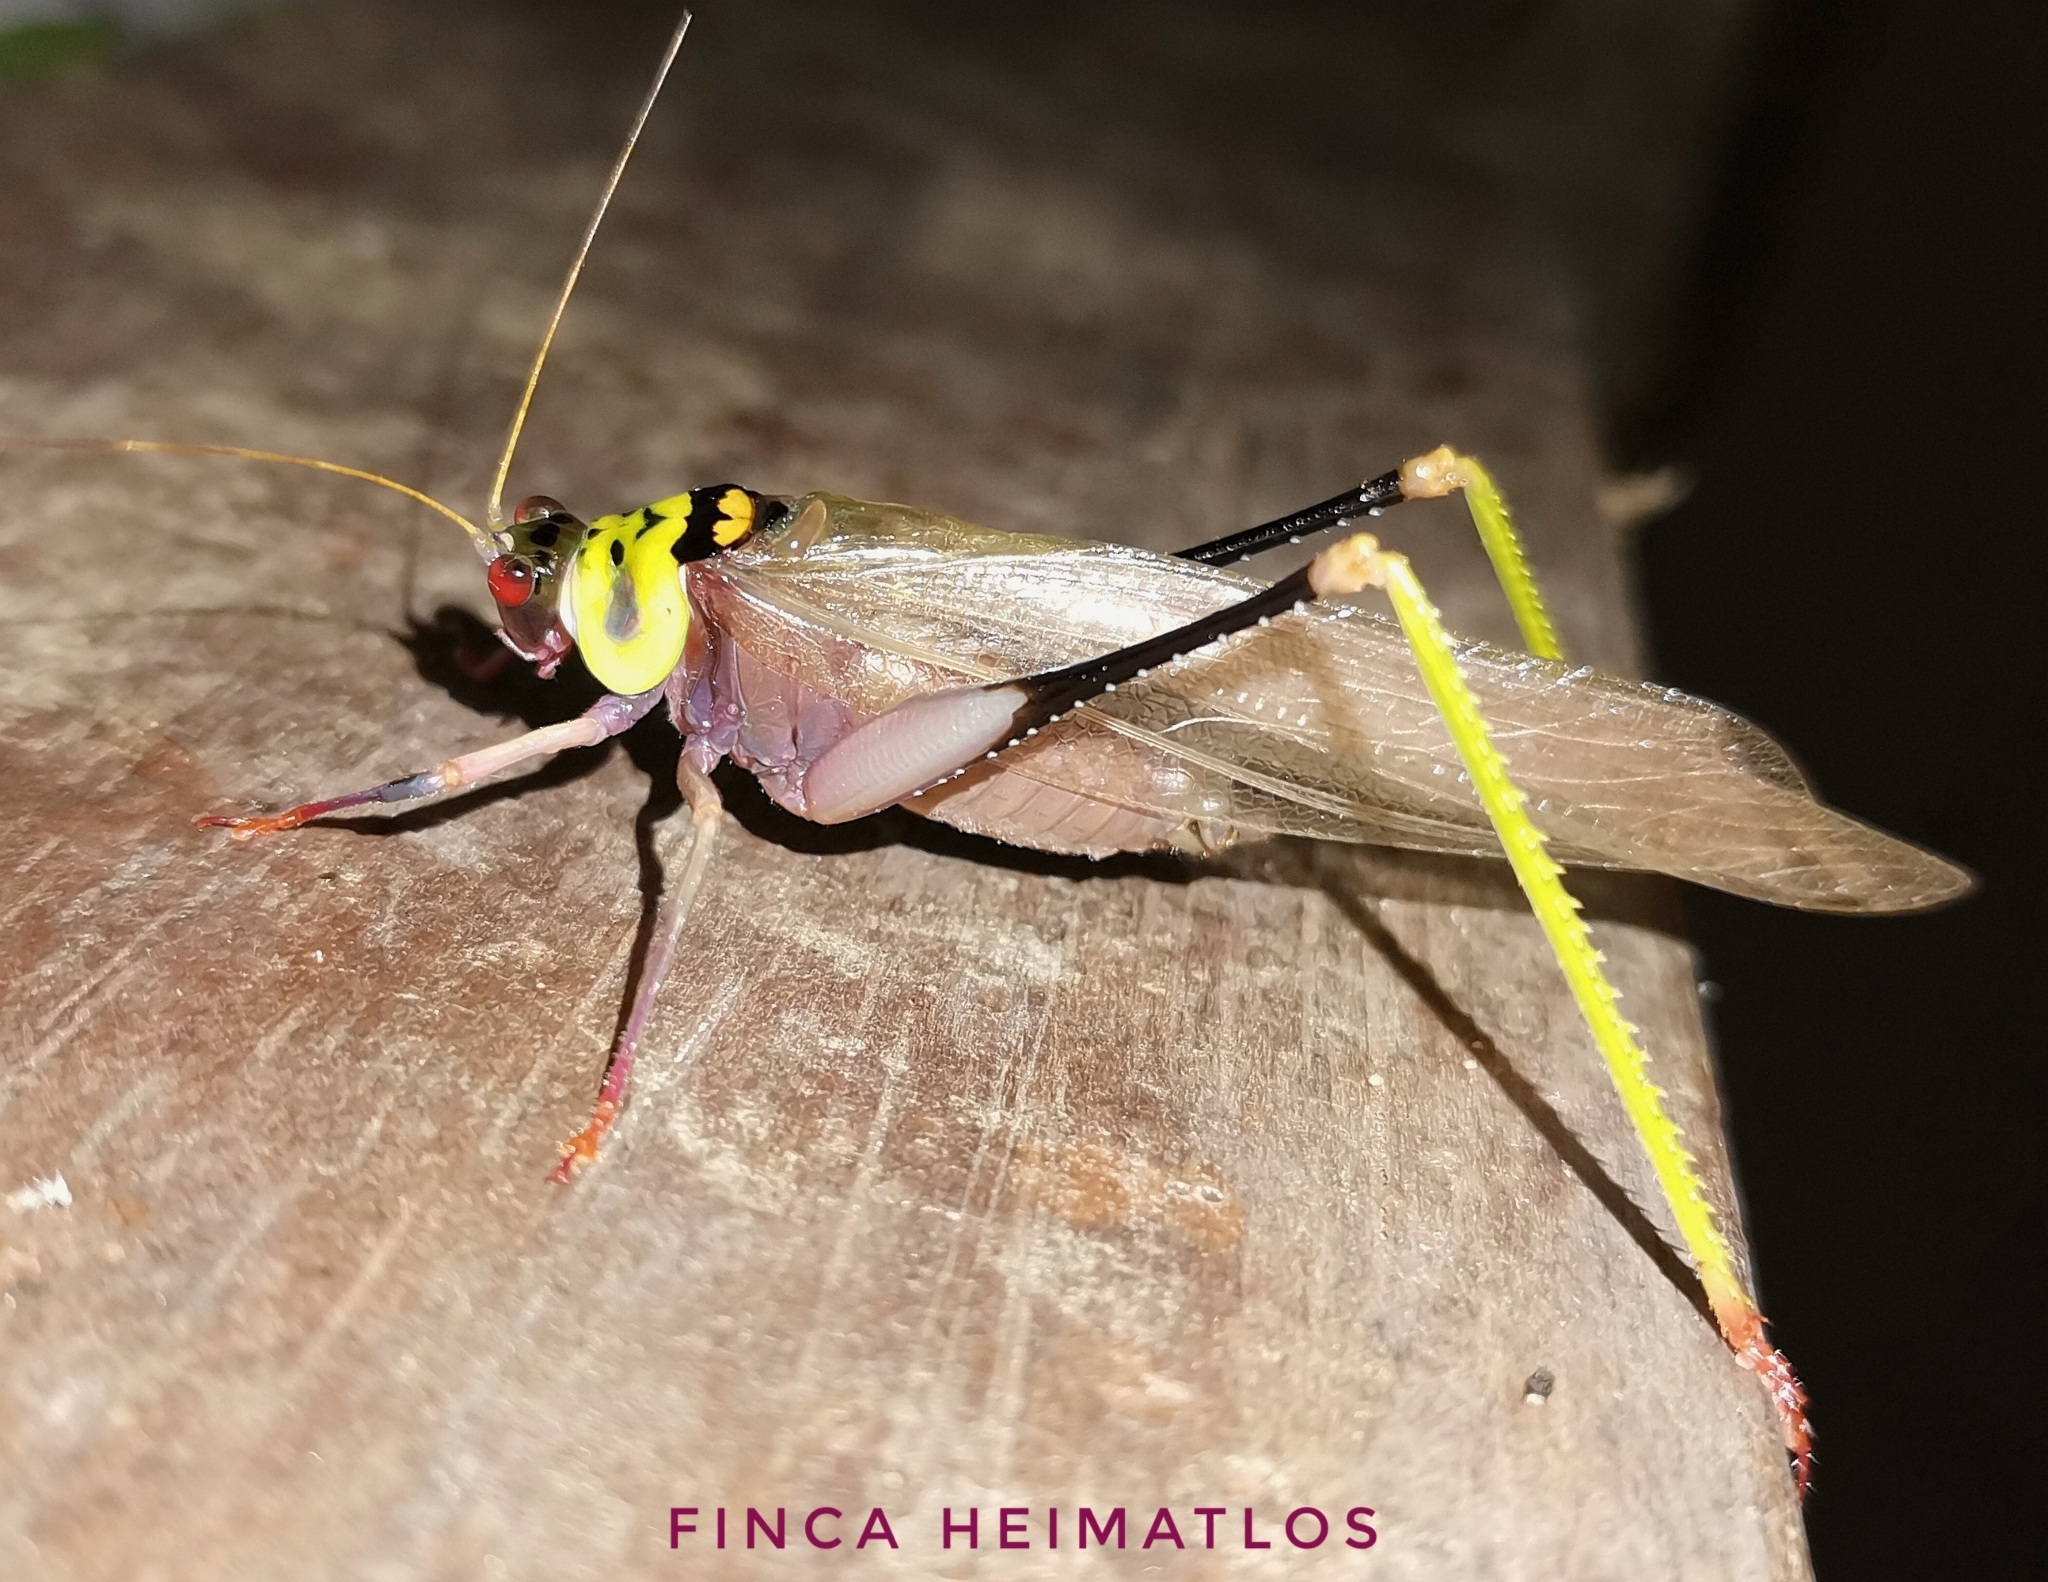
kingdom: Animalia
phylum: Arthropoda
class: Insecta
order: Orthoptera
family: Tettigoniidae
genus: Euceraia
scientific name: Euceraia insignis
